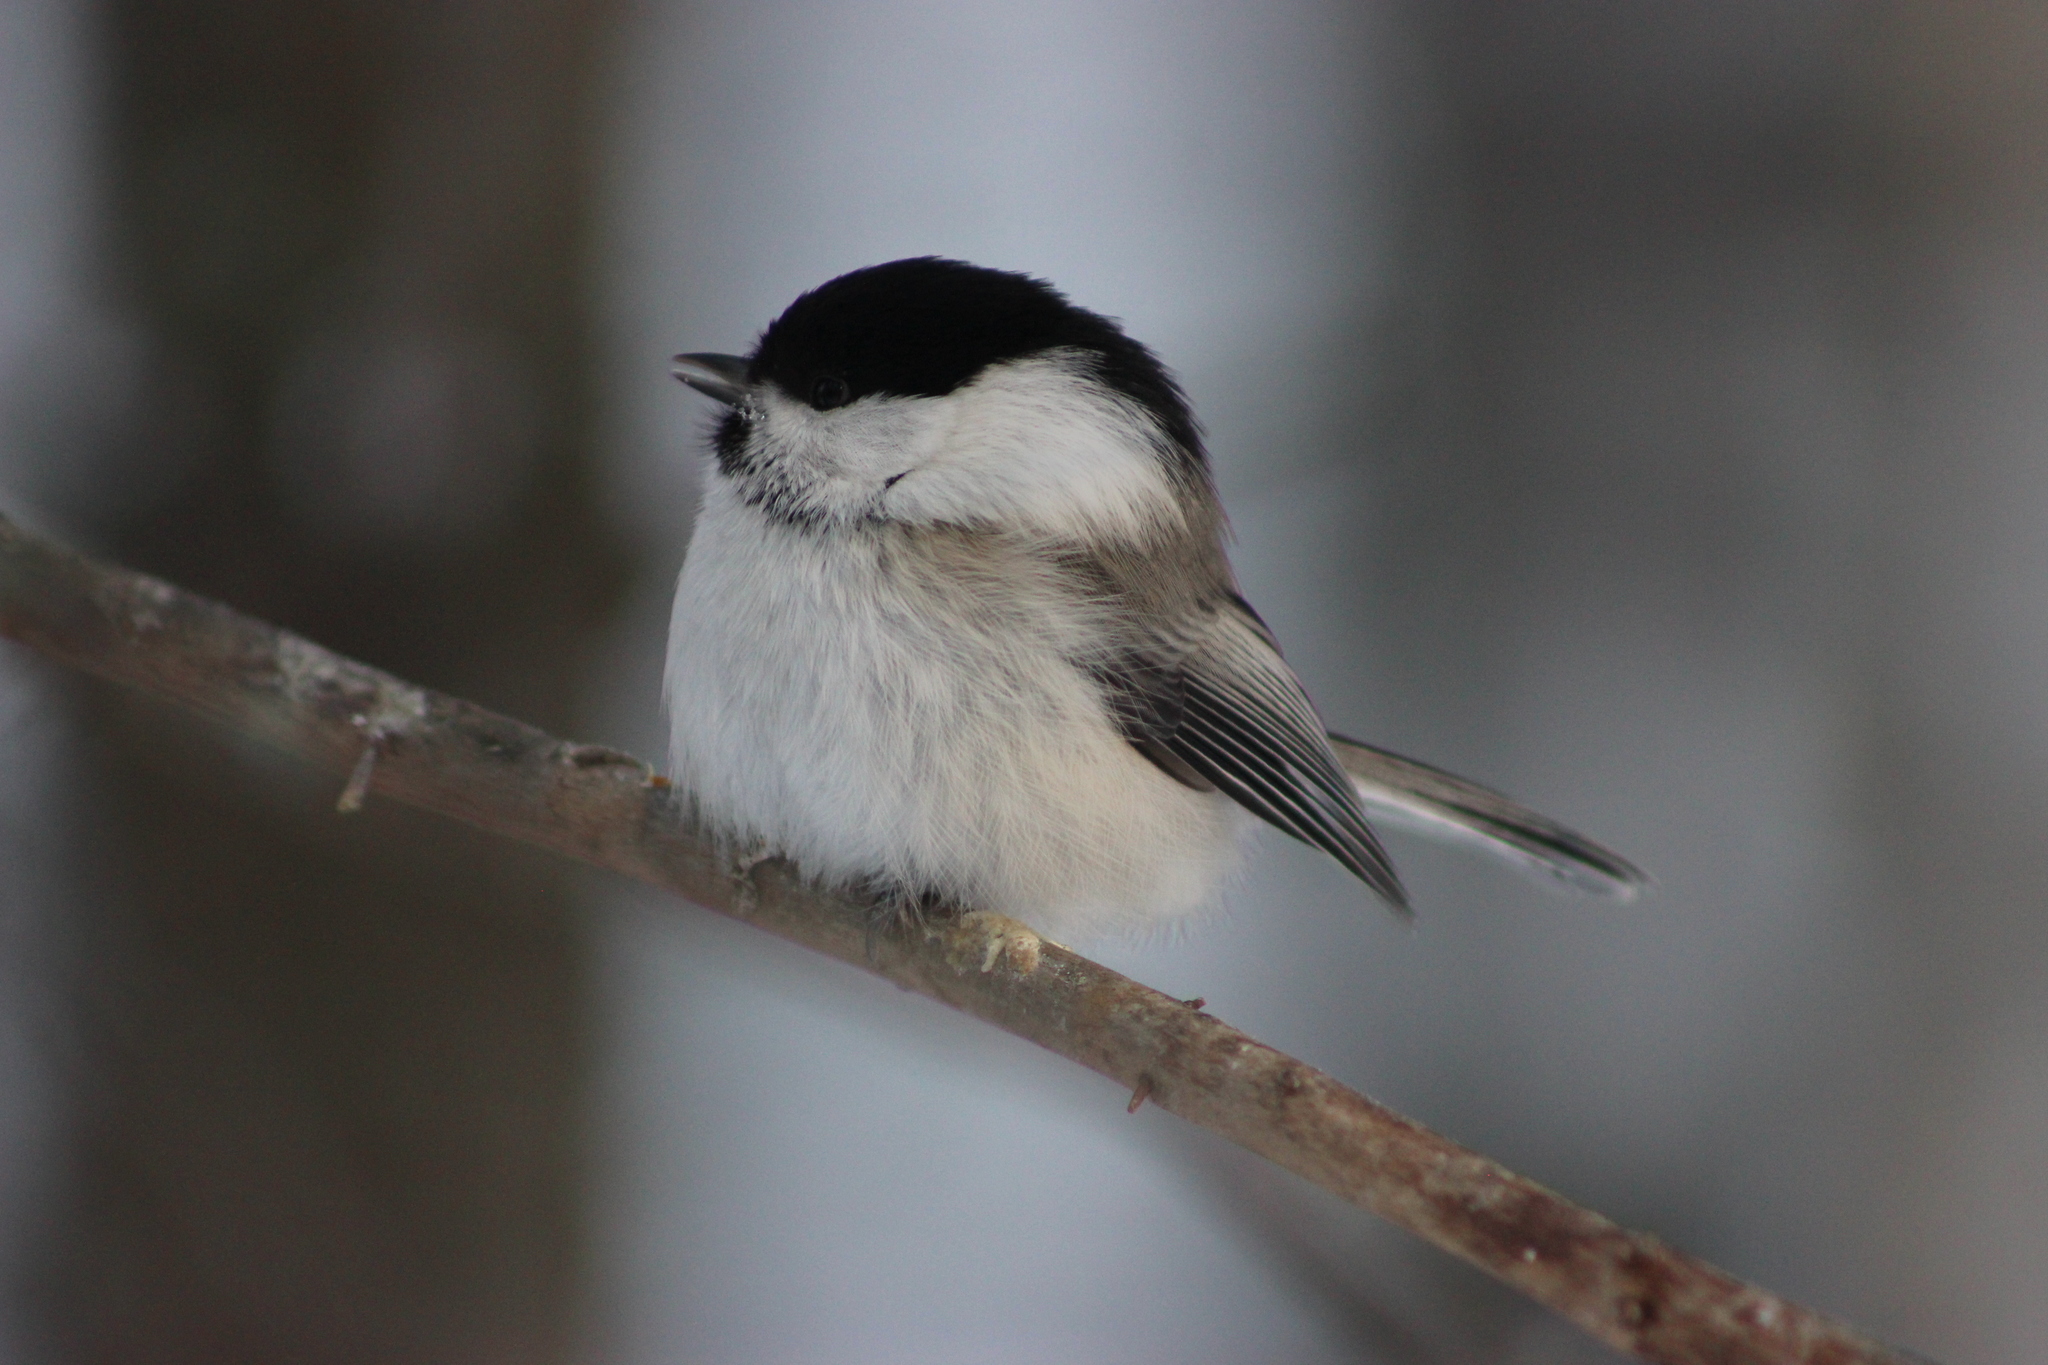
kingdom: Animalia
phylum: Chordata
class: Aves
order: Passeriformes
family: Paridae
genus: Poecile
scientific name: Poecile montanus
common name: Willow tit
